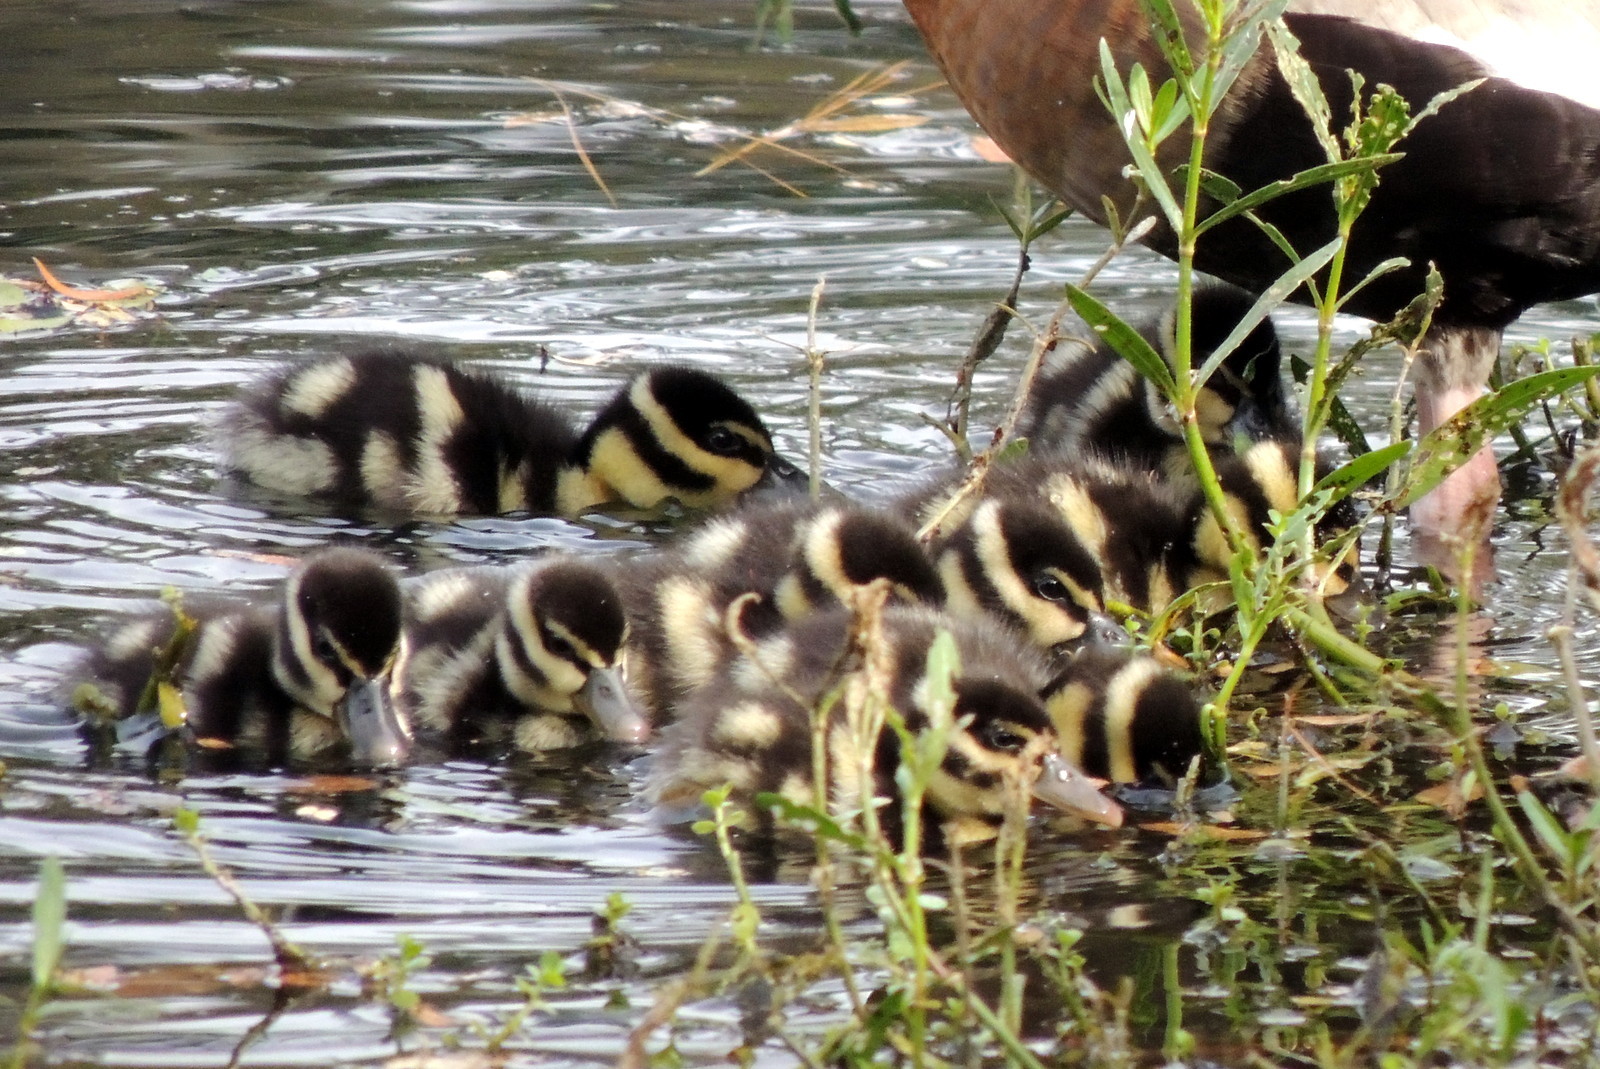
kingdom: Animalia
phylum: Chordata
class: Aves
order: Anseriformes
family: Anatidae
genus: Dendrocygna
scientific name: Dendrocygna autumnalis
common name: Black-bellied whistling duck
